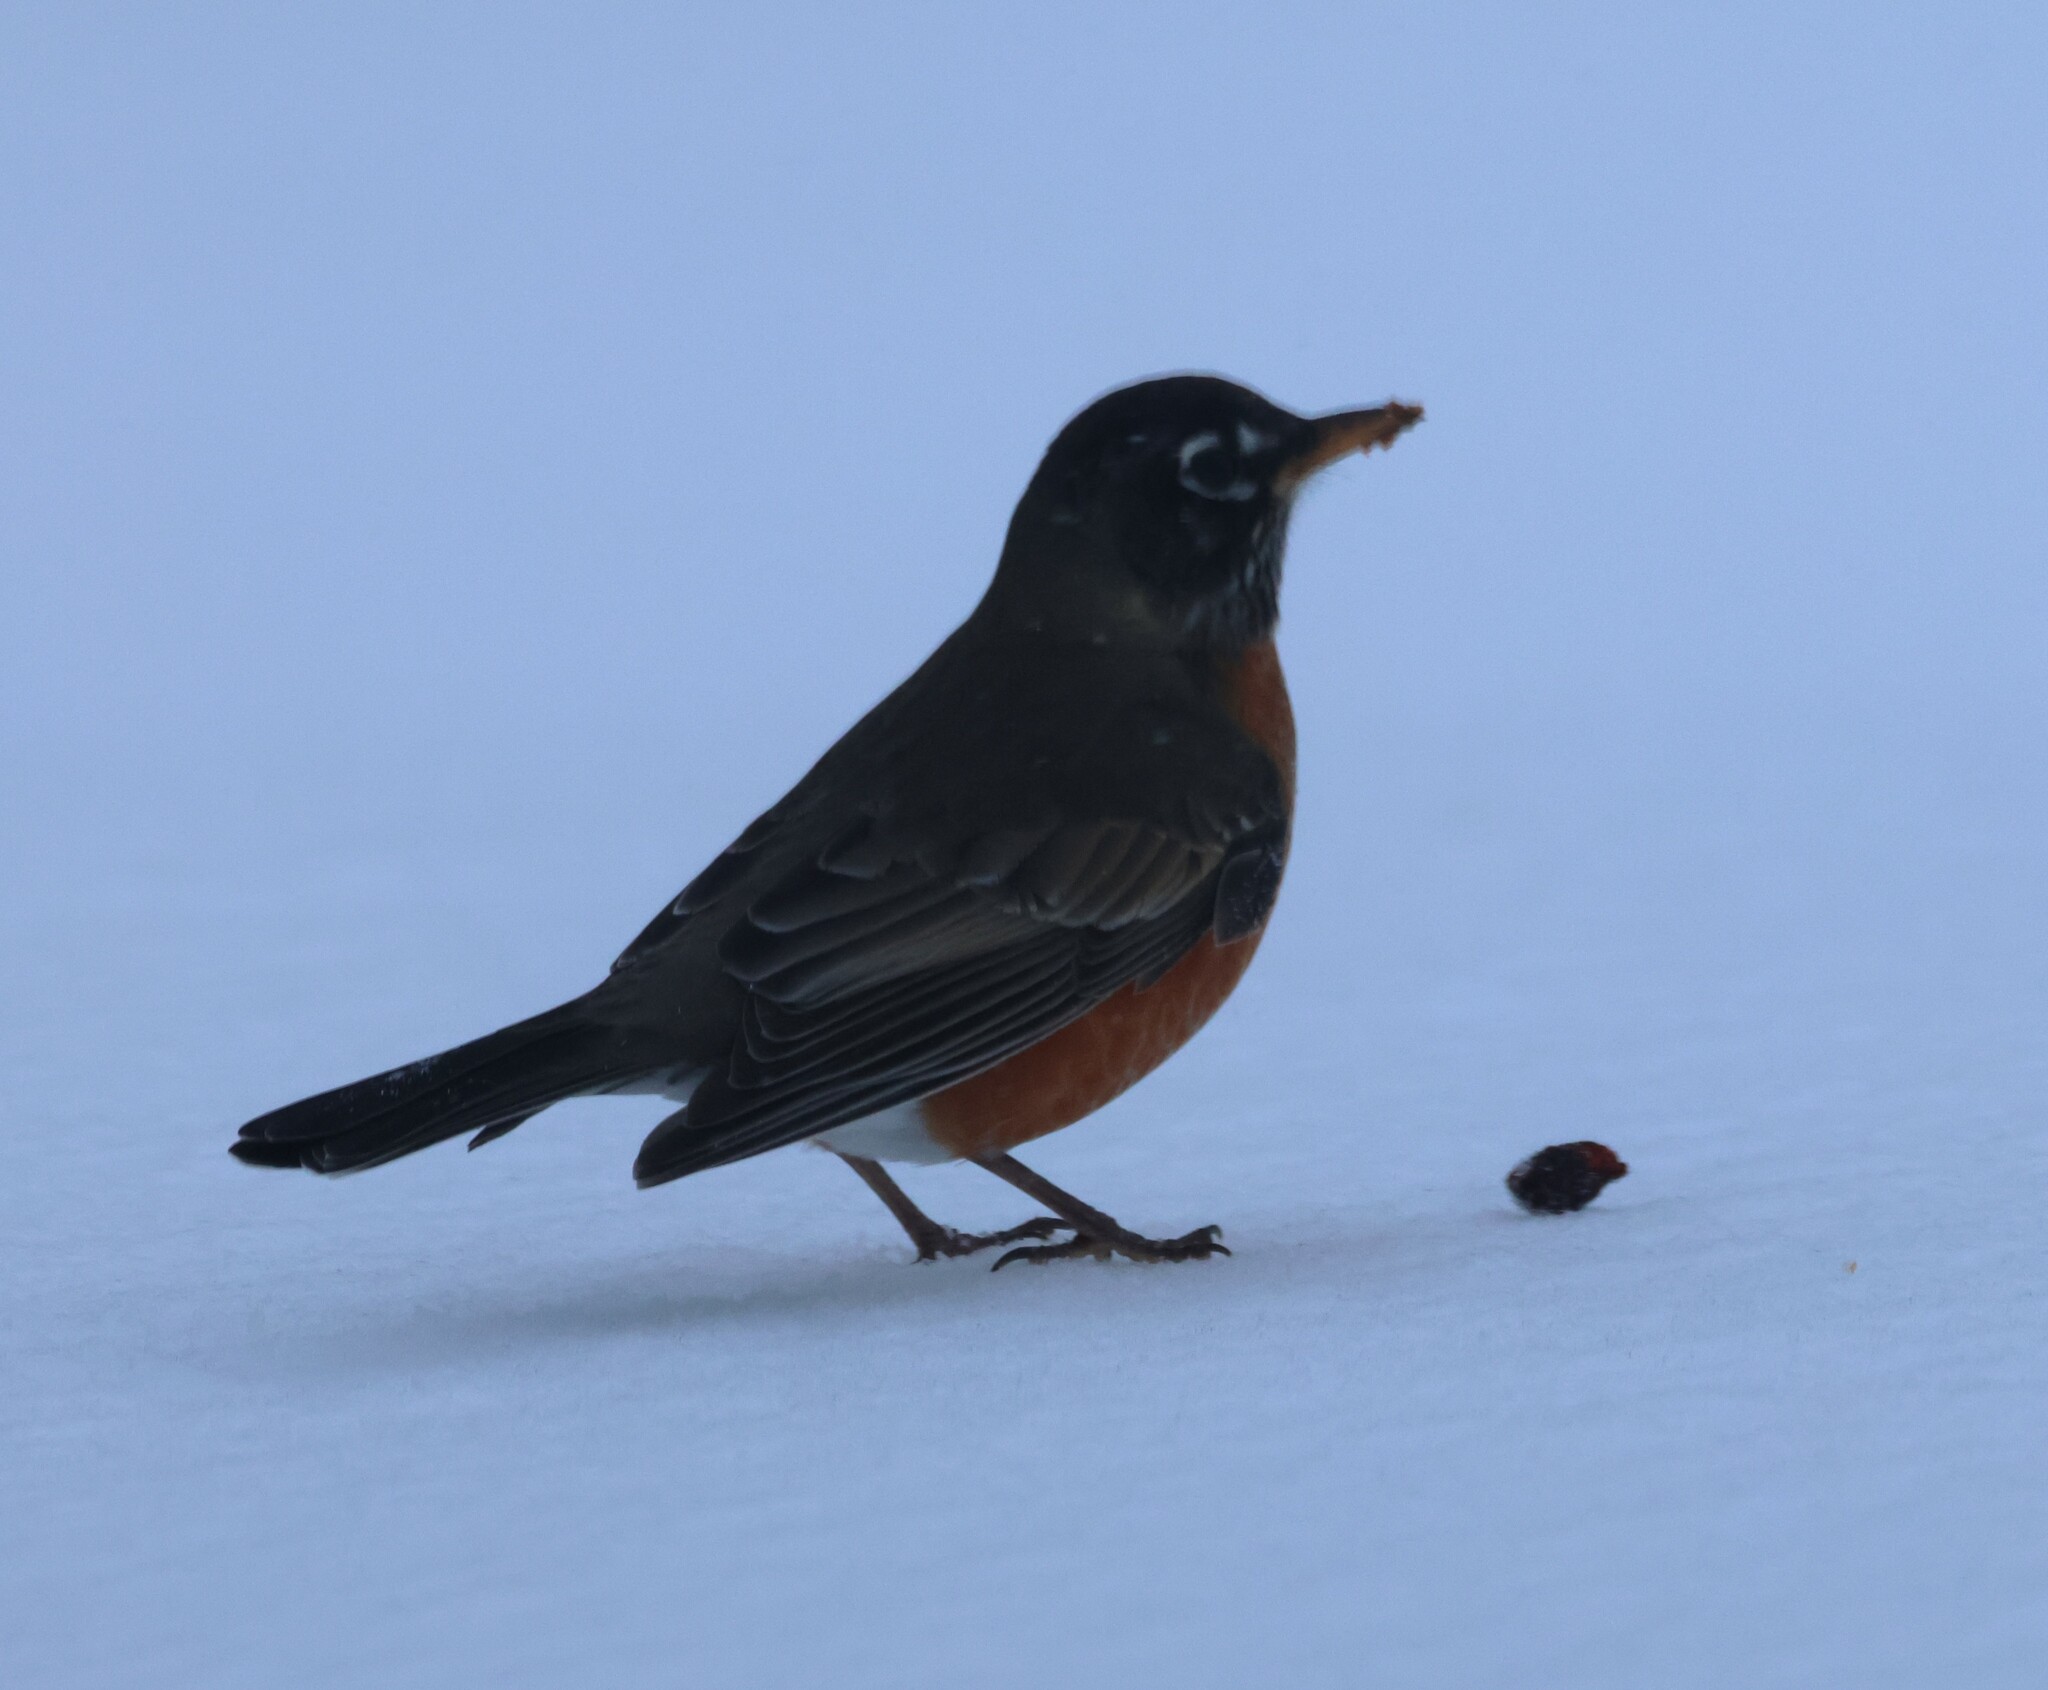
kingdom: Animalia
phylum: Chordata
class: Aves
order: Passeriformes
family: Turdidae
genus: Turdus
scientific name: Turdus migratorius
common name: American robin
